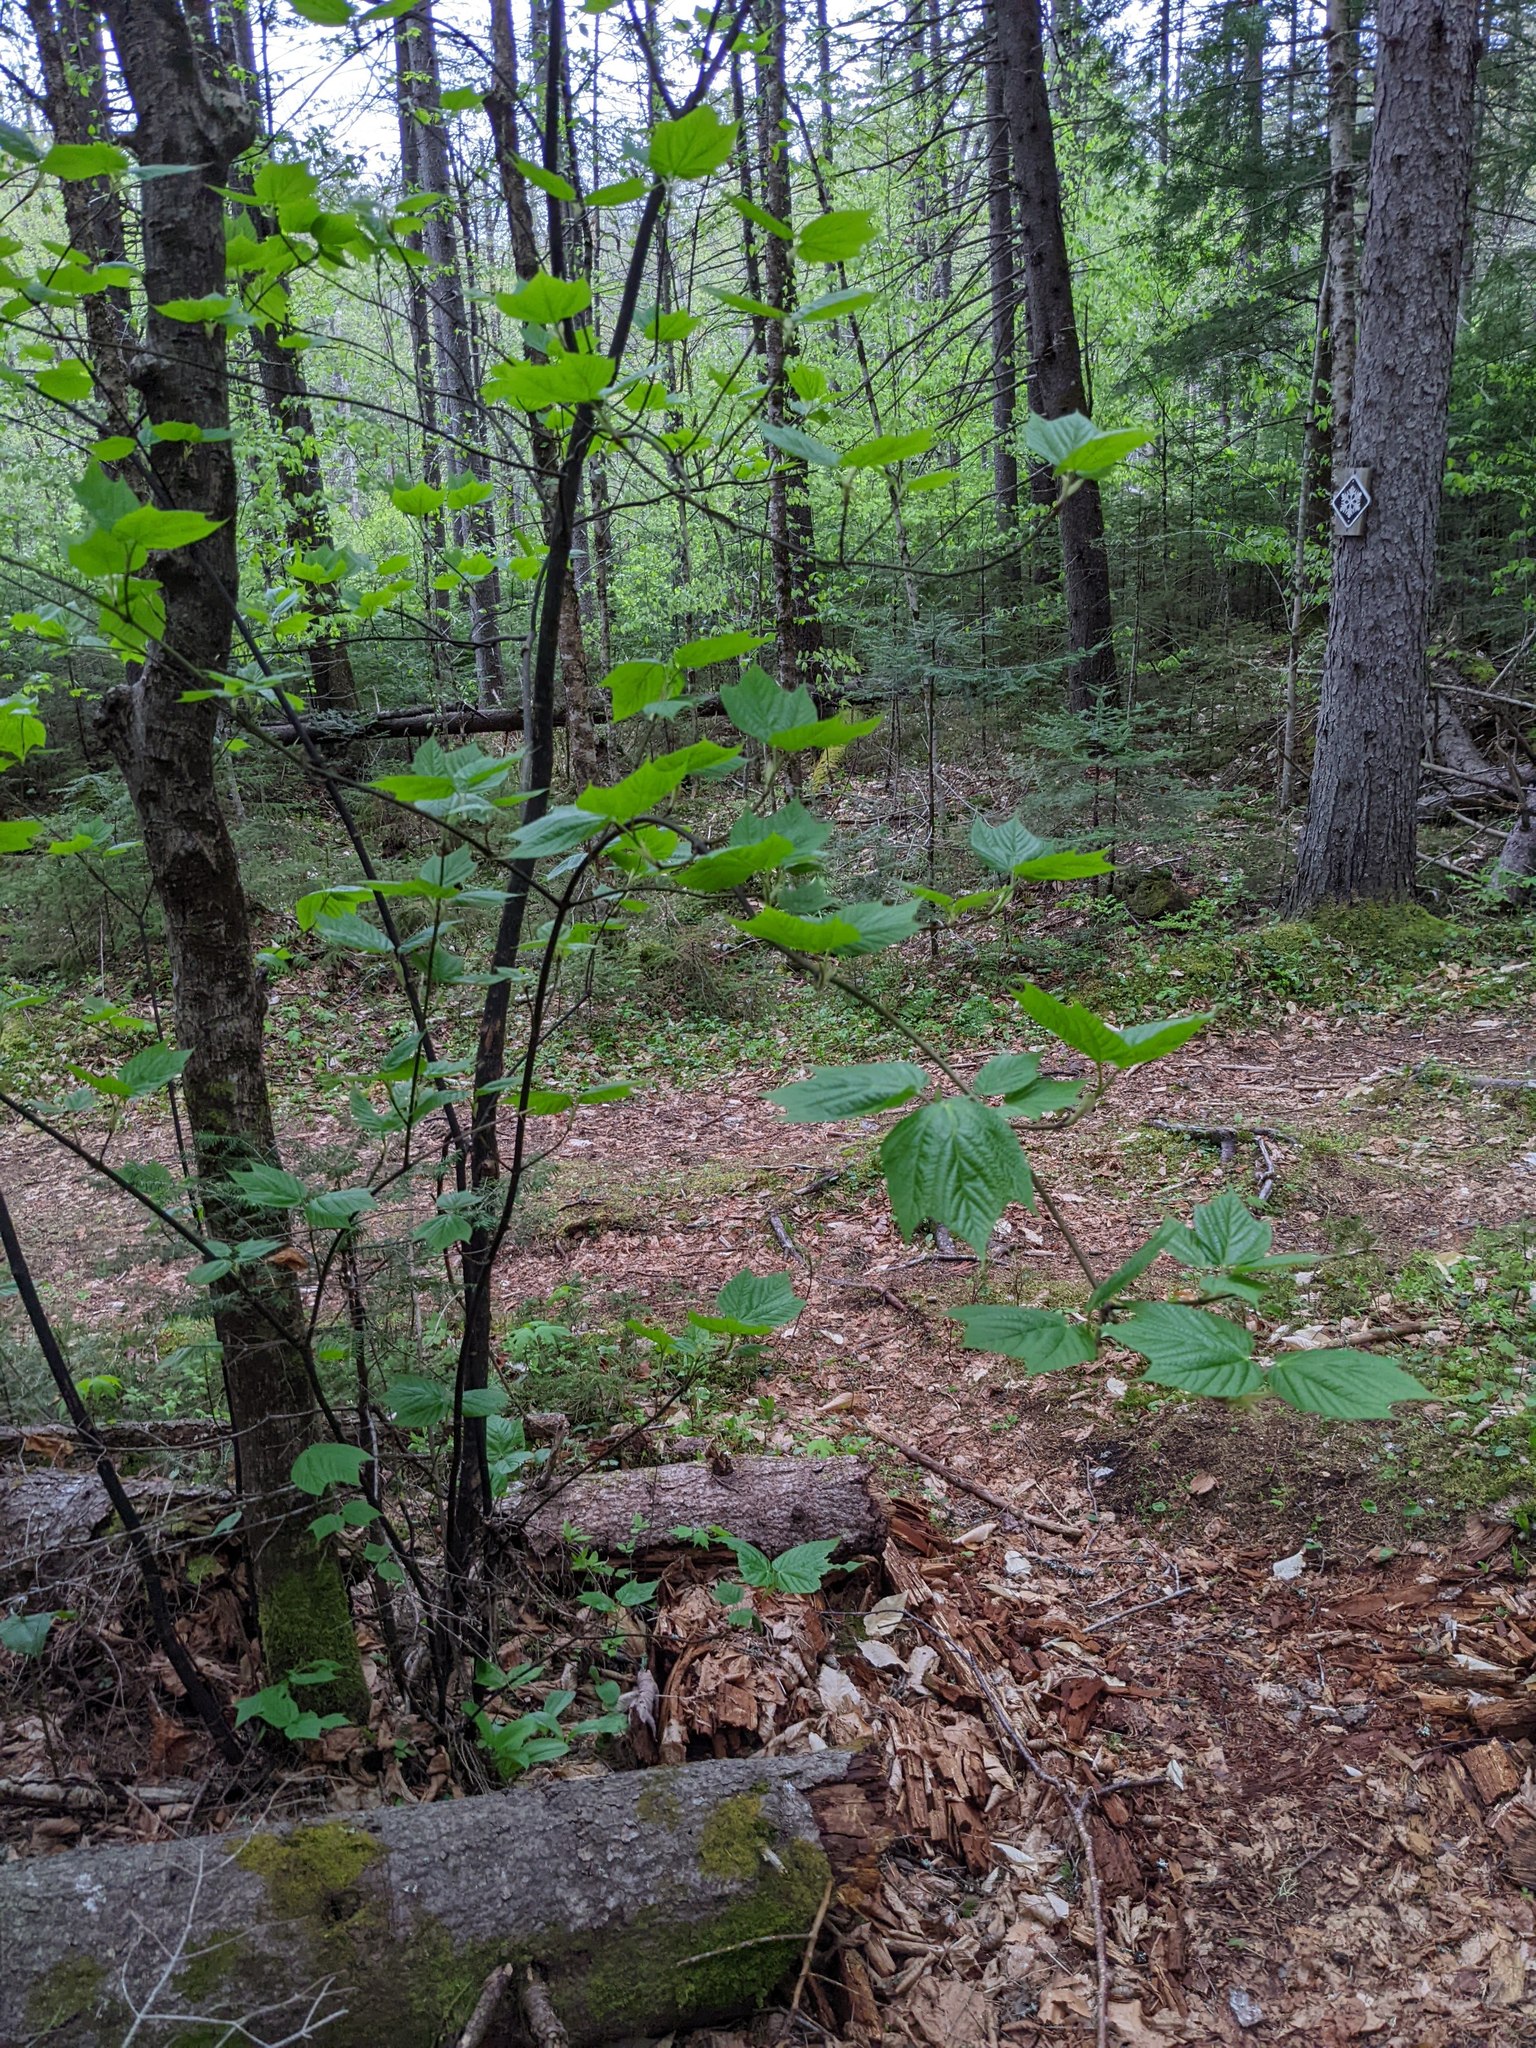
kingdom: Plantae
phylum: Tracheophyta
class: Magnoliopsida
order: Sapindales
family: Sapindaceae
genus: Acer
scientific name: Acer pensylvanicum
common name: Moosewood
